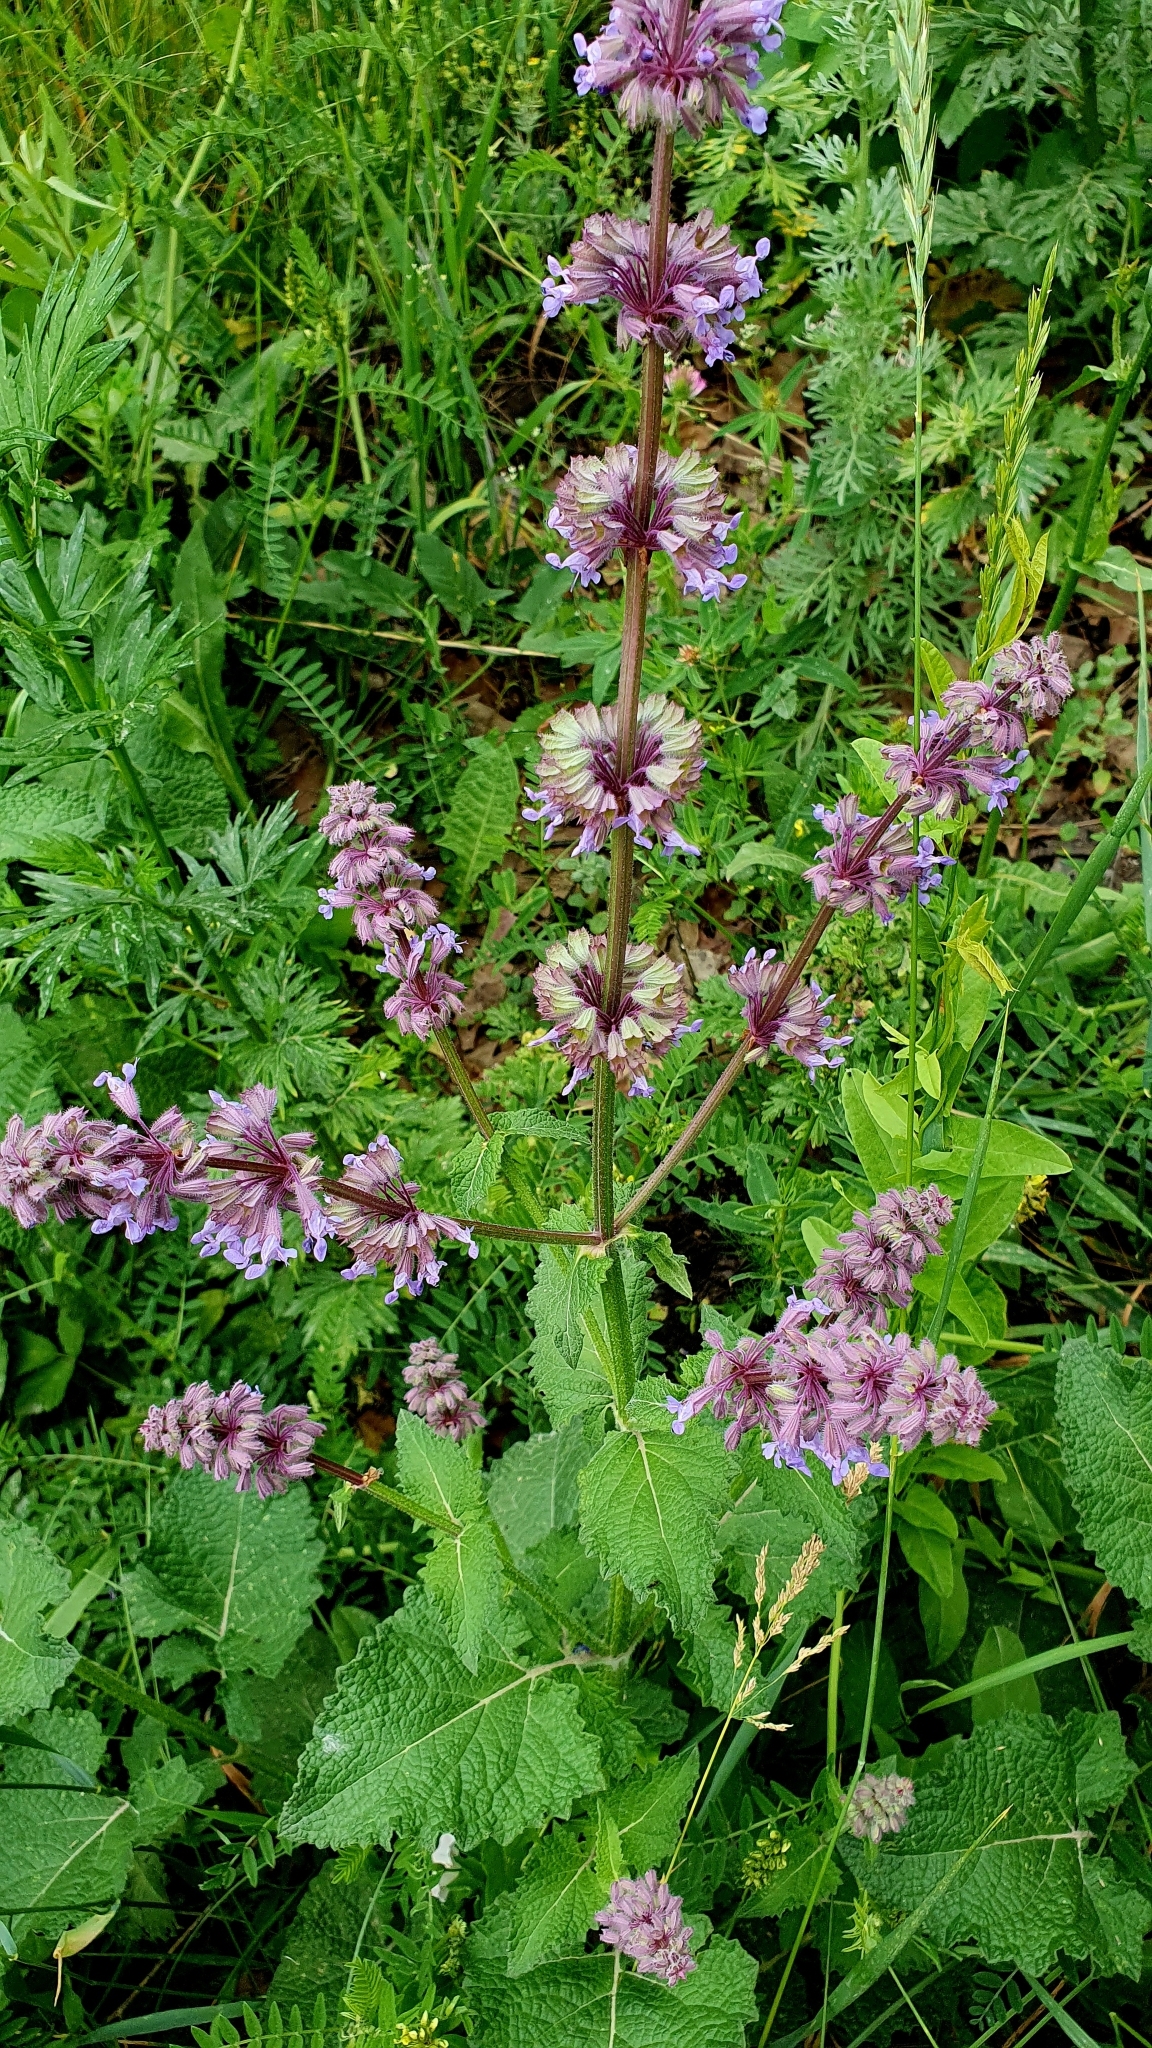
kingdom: Plantae
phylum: Tracheophyta
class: Magnoliopsida
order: Lamiales
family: Lamiaceae
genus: Salvia
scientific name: Salvia verticillata
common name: Whorled clary
